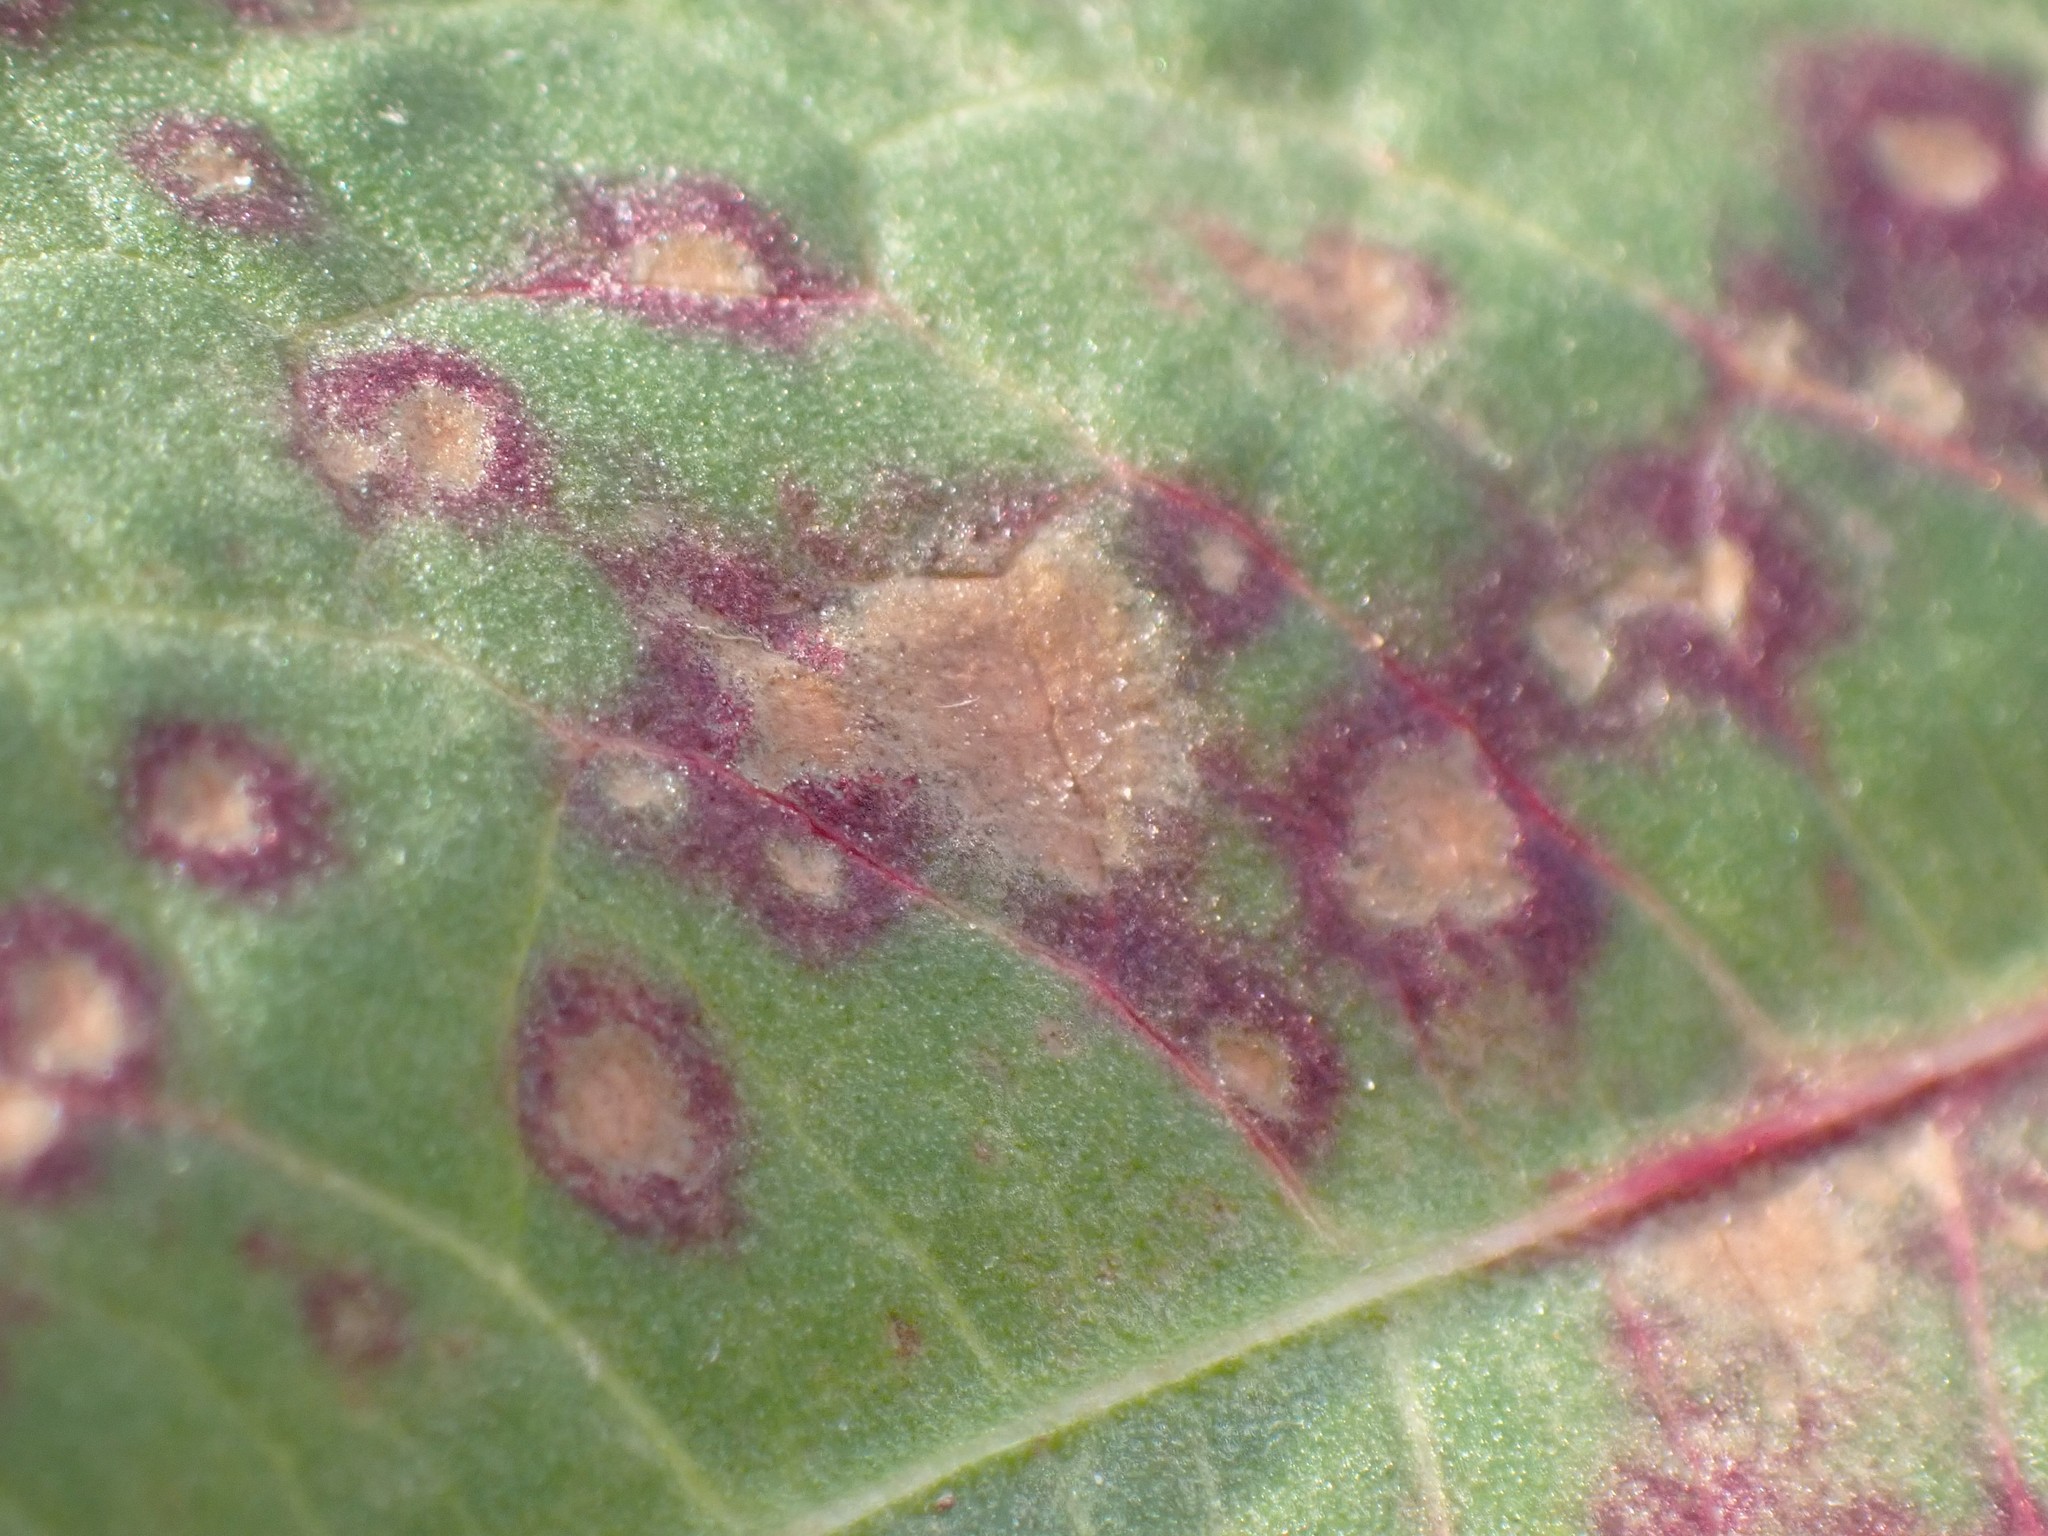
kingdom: Fungi
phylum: Ascomycota
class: Dothideomycetes
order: Mycosphaerellales
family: Mycosphaerellaceae
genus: Ramularia
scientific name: Ramularia rubella
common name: Red dock spot
